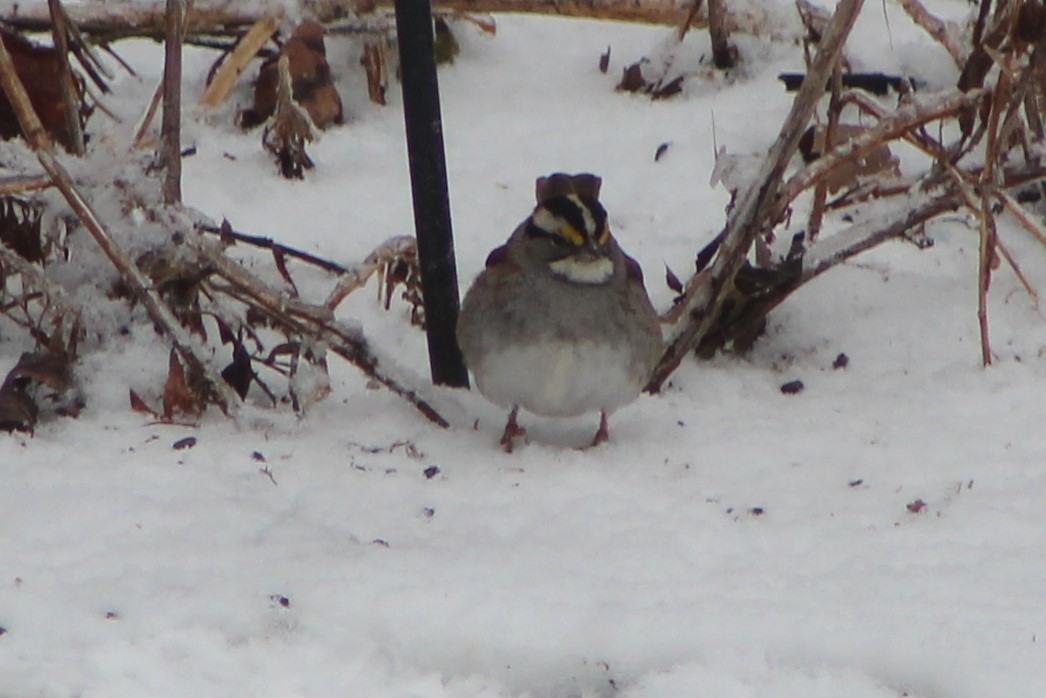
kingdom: Animalia
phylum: Chordata
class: Aves
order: Passeriformes
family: Passerellidae
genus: Zonotrichia
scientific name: Zonotrichia albicollis
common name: White-throated sparrow
